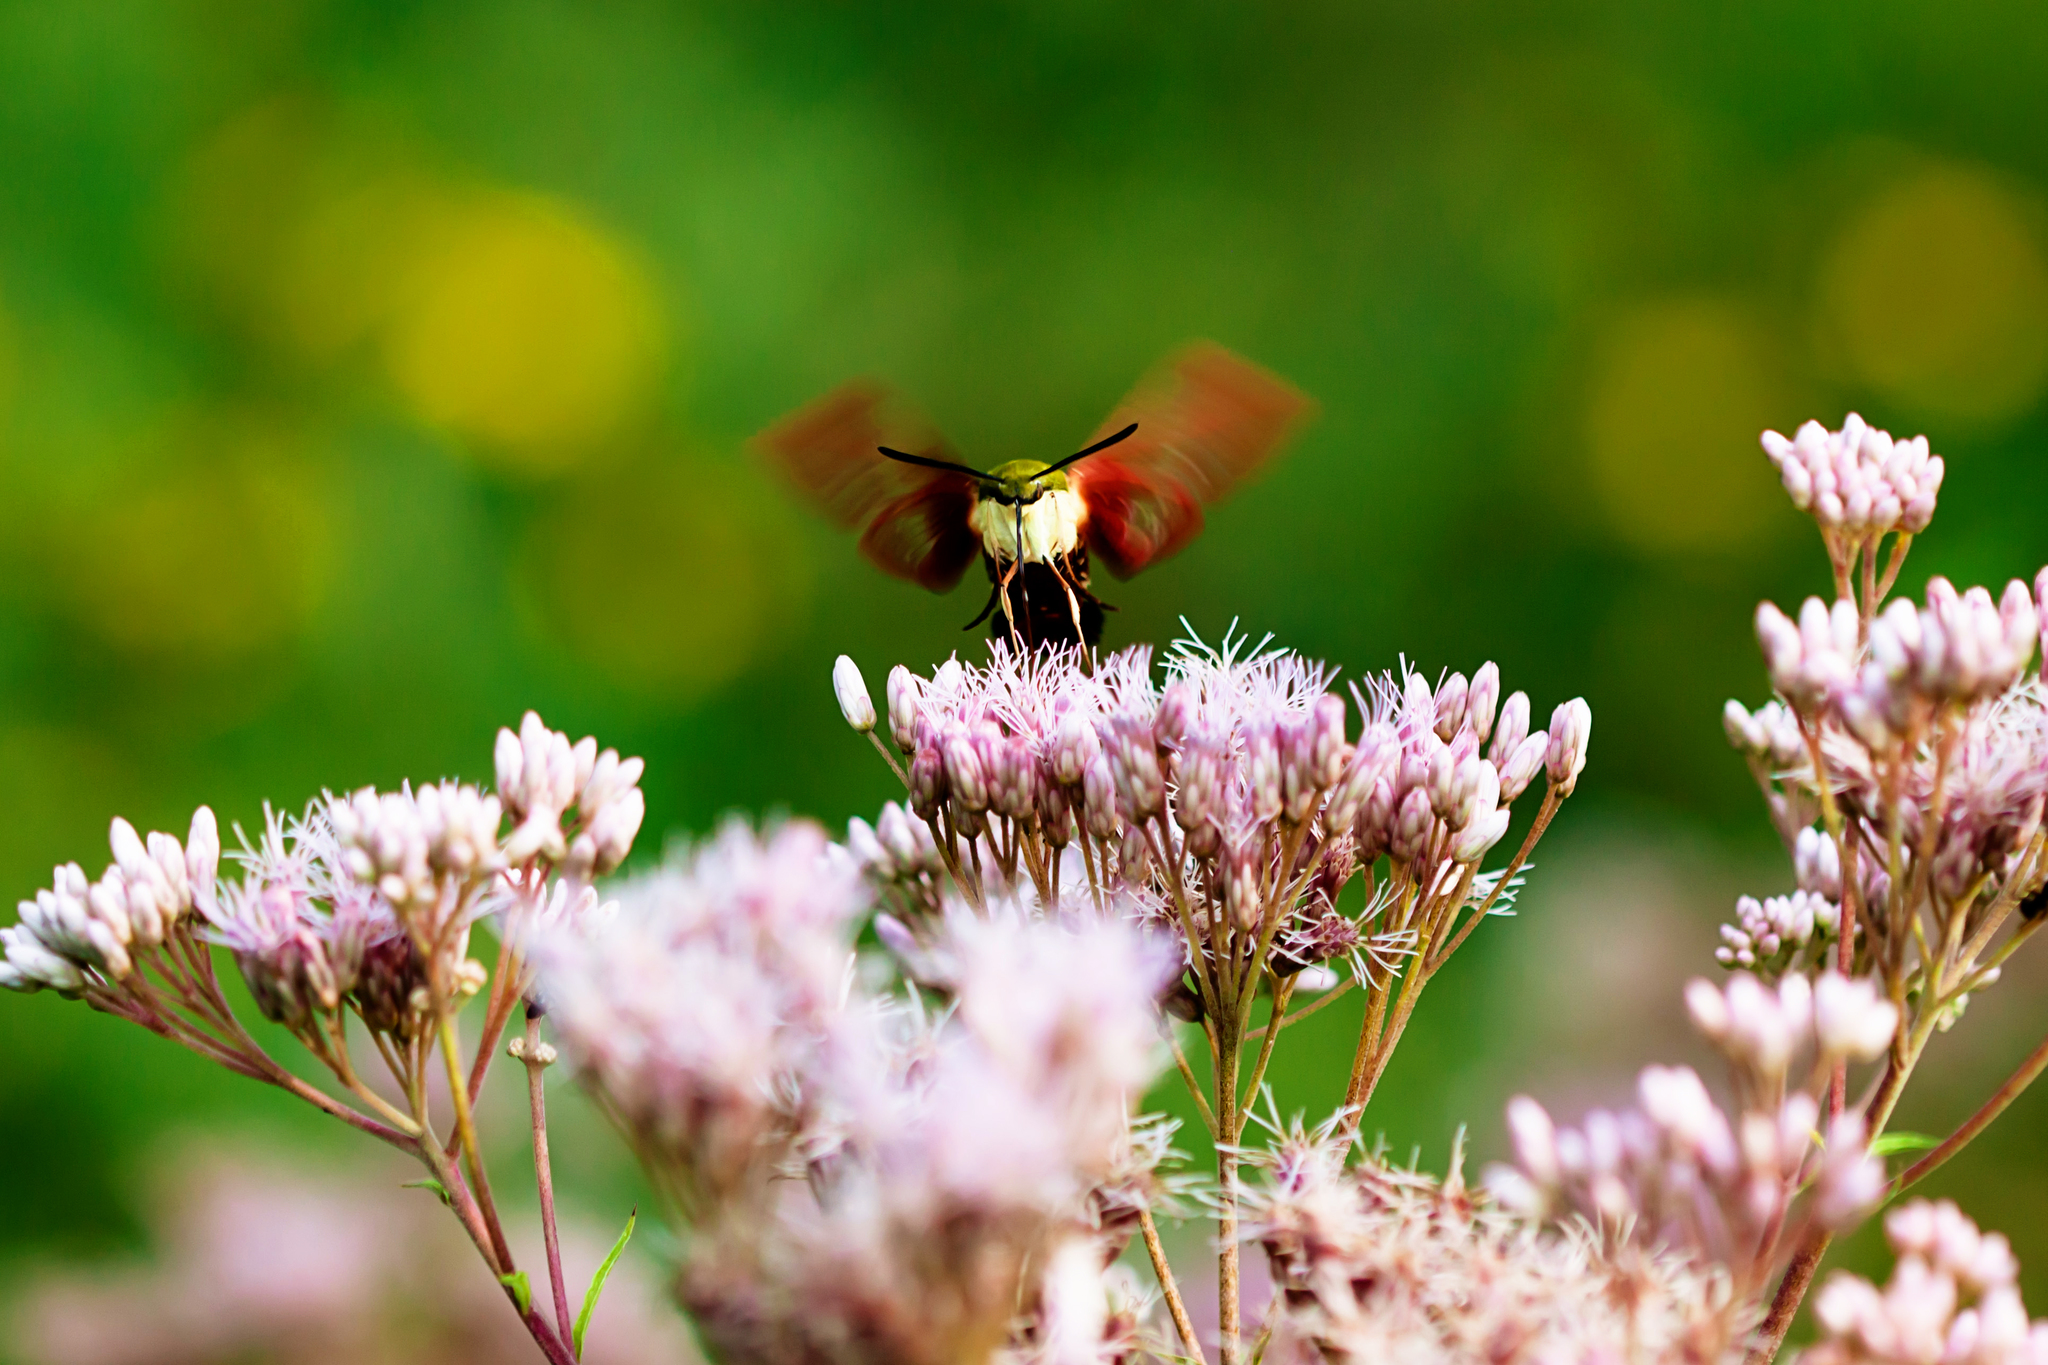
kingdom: Animalia
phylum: Arthropoda
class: Insecta
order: Lepidoptera
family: Sphingidae
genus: Hemaris
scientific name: Hemaris thysbe
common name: Common clear-wing
